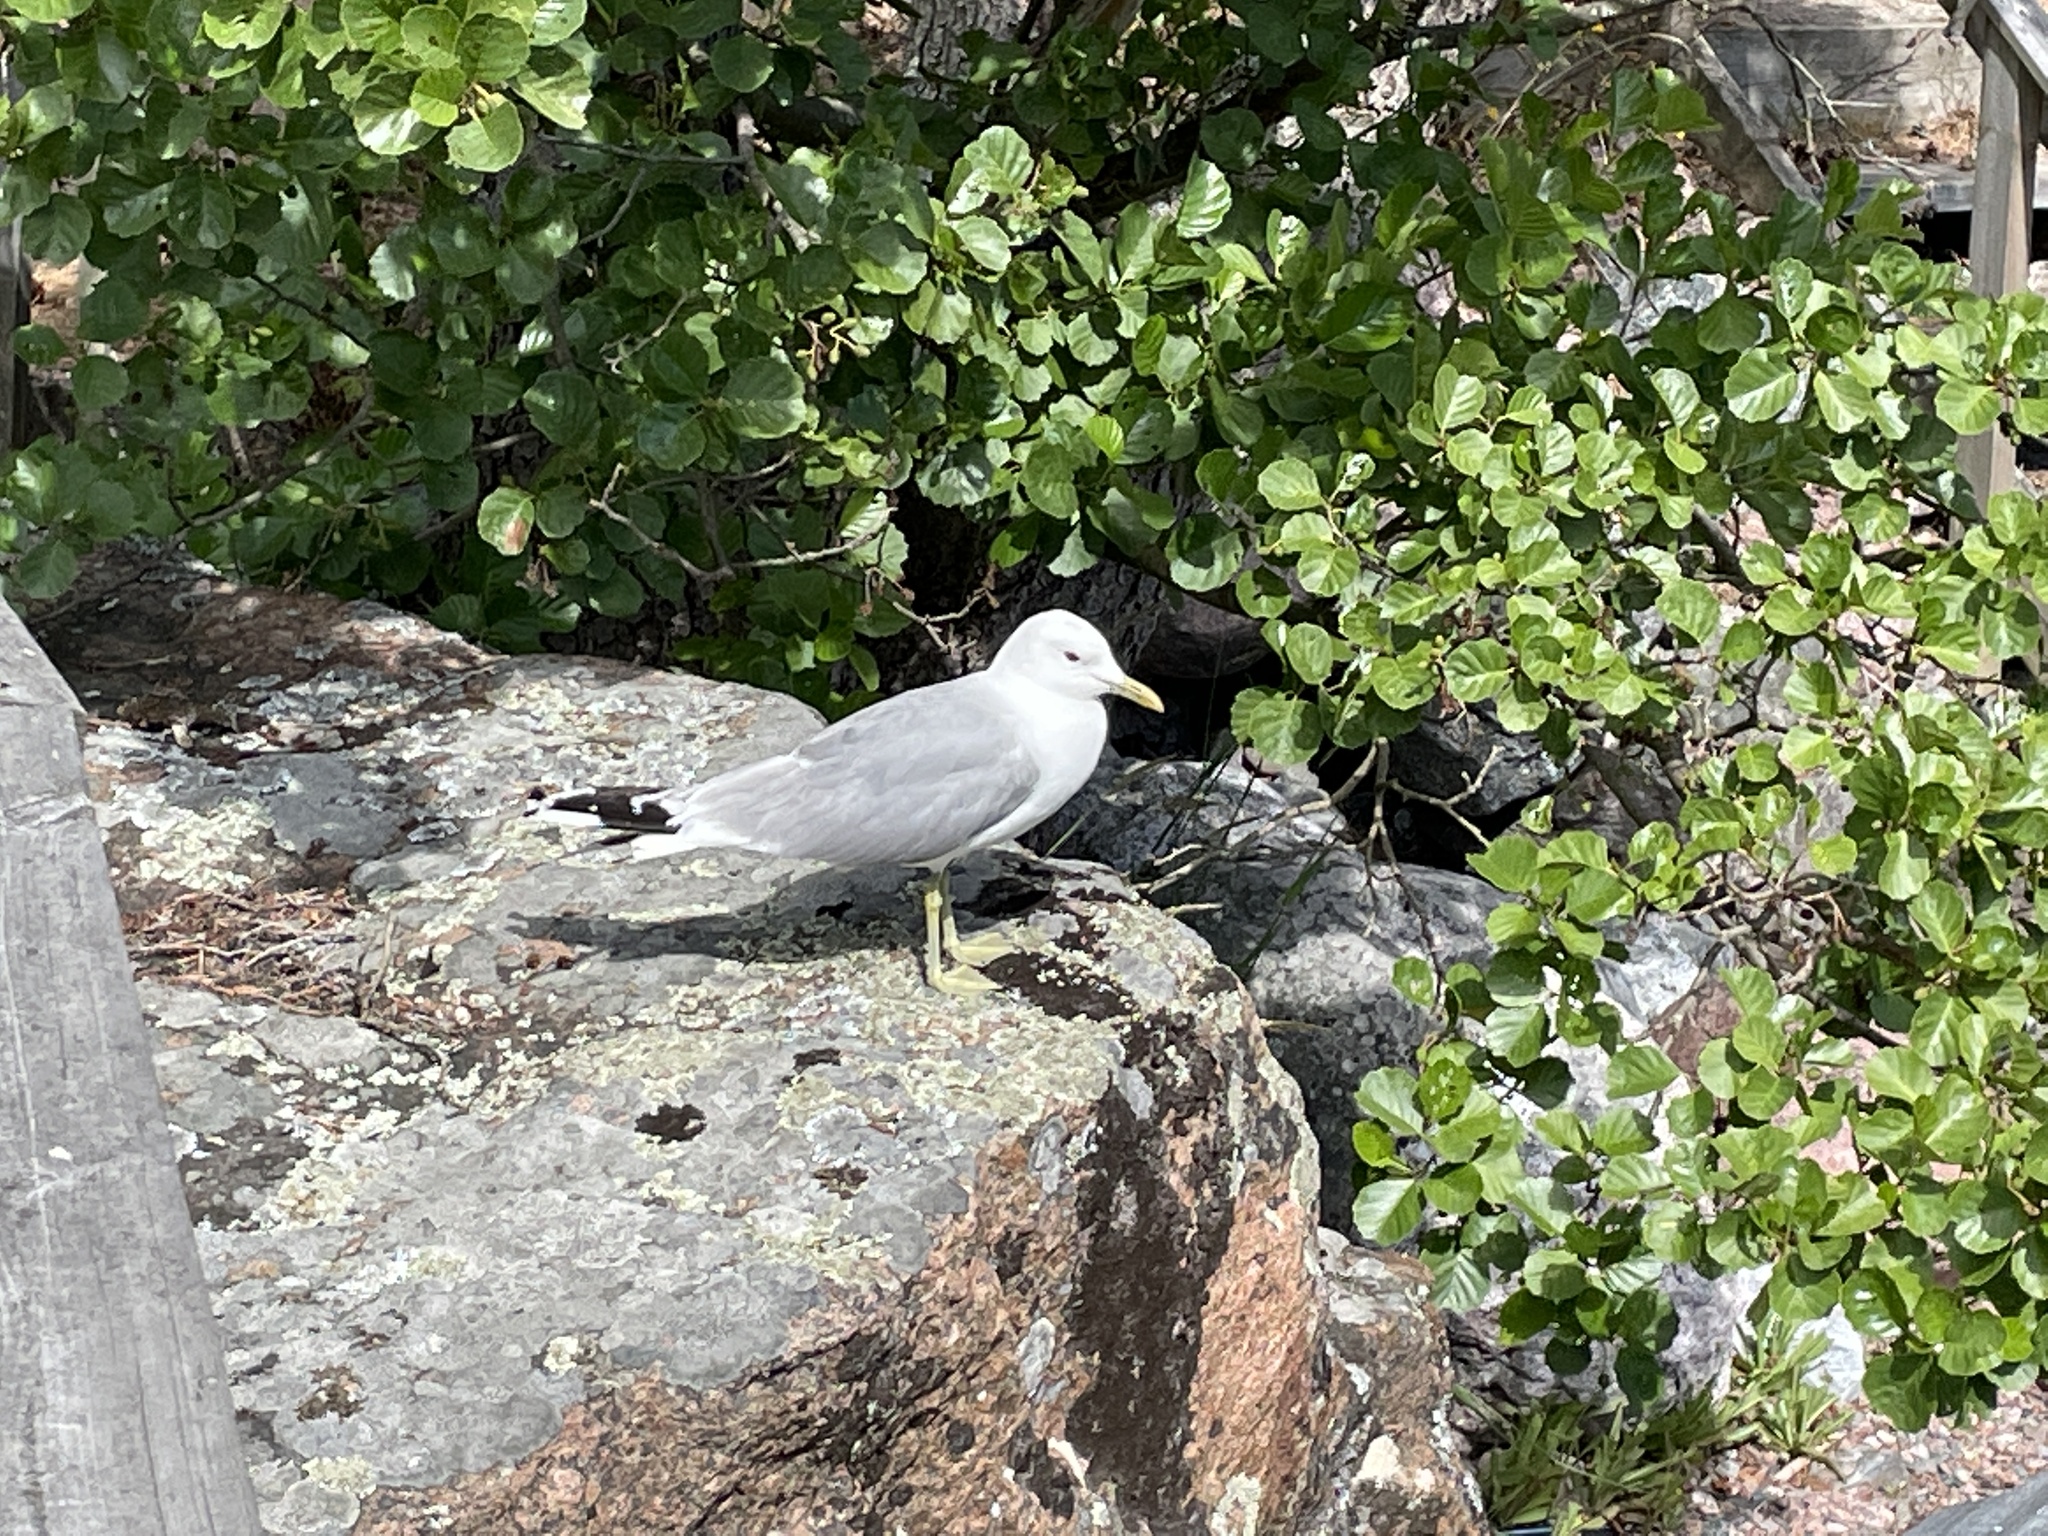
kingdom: Animalia
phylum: Chordata
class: Aves
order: Charadriiformes
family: Laridae
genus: Larus
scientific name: Larus canus
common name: Mew gull
